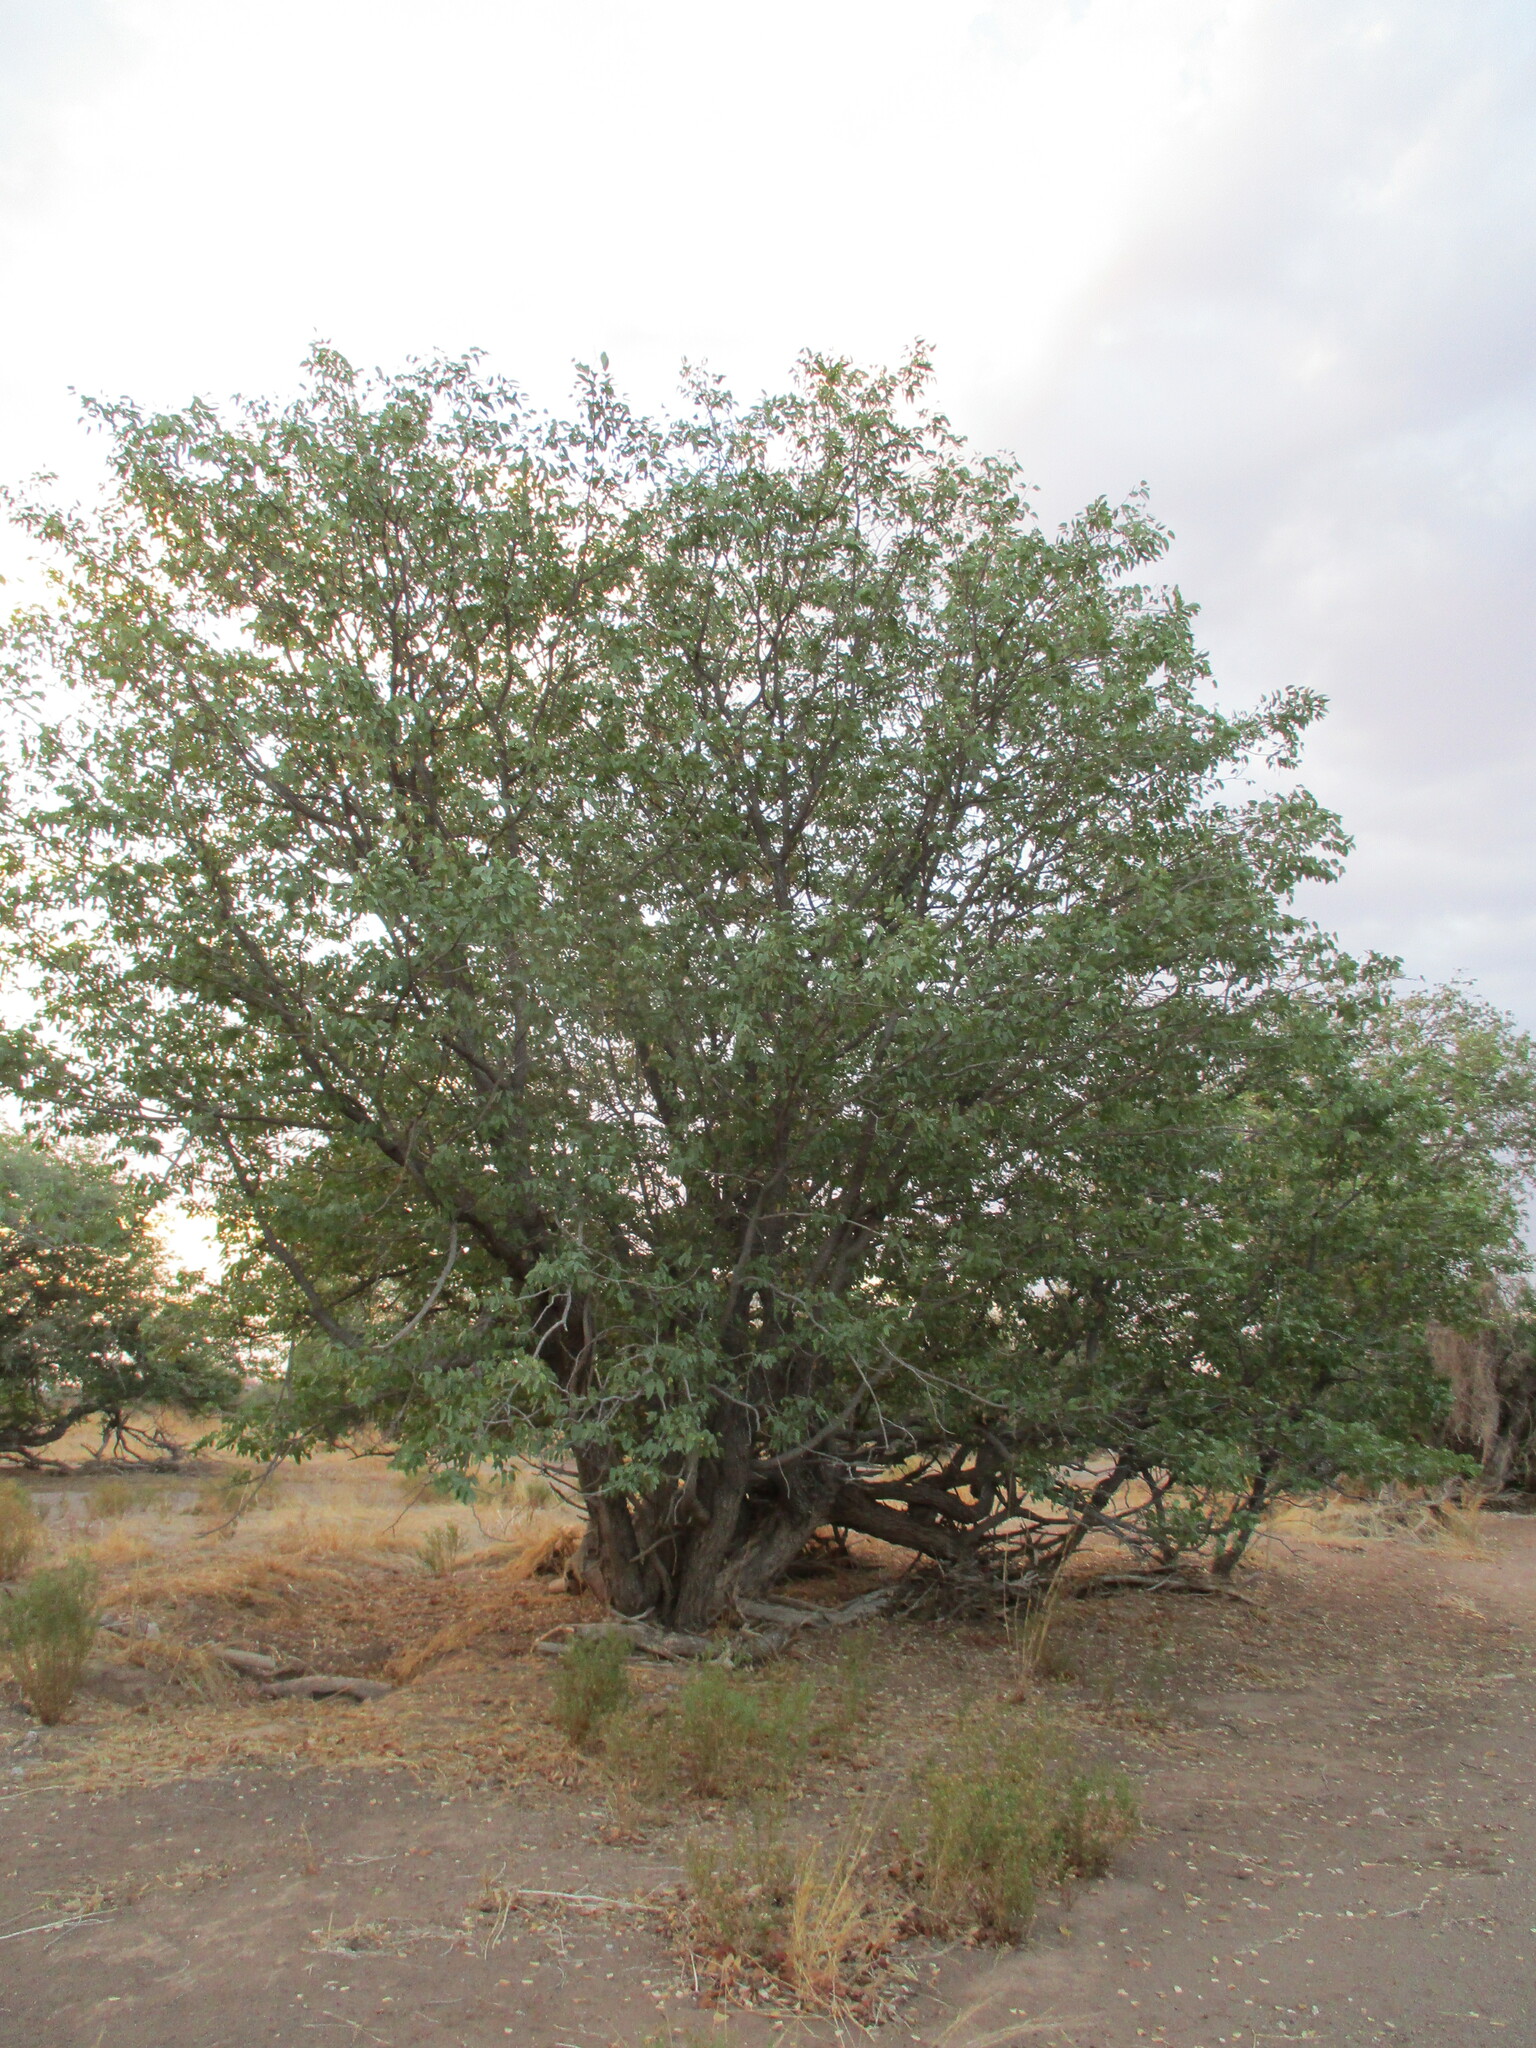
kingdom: Plantae
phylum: Tracheophyta
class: Magnoliopsida
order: Fabales
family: Fabaceae
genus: Colophospermum
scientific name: Colophospermum mopane
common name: Mopane
